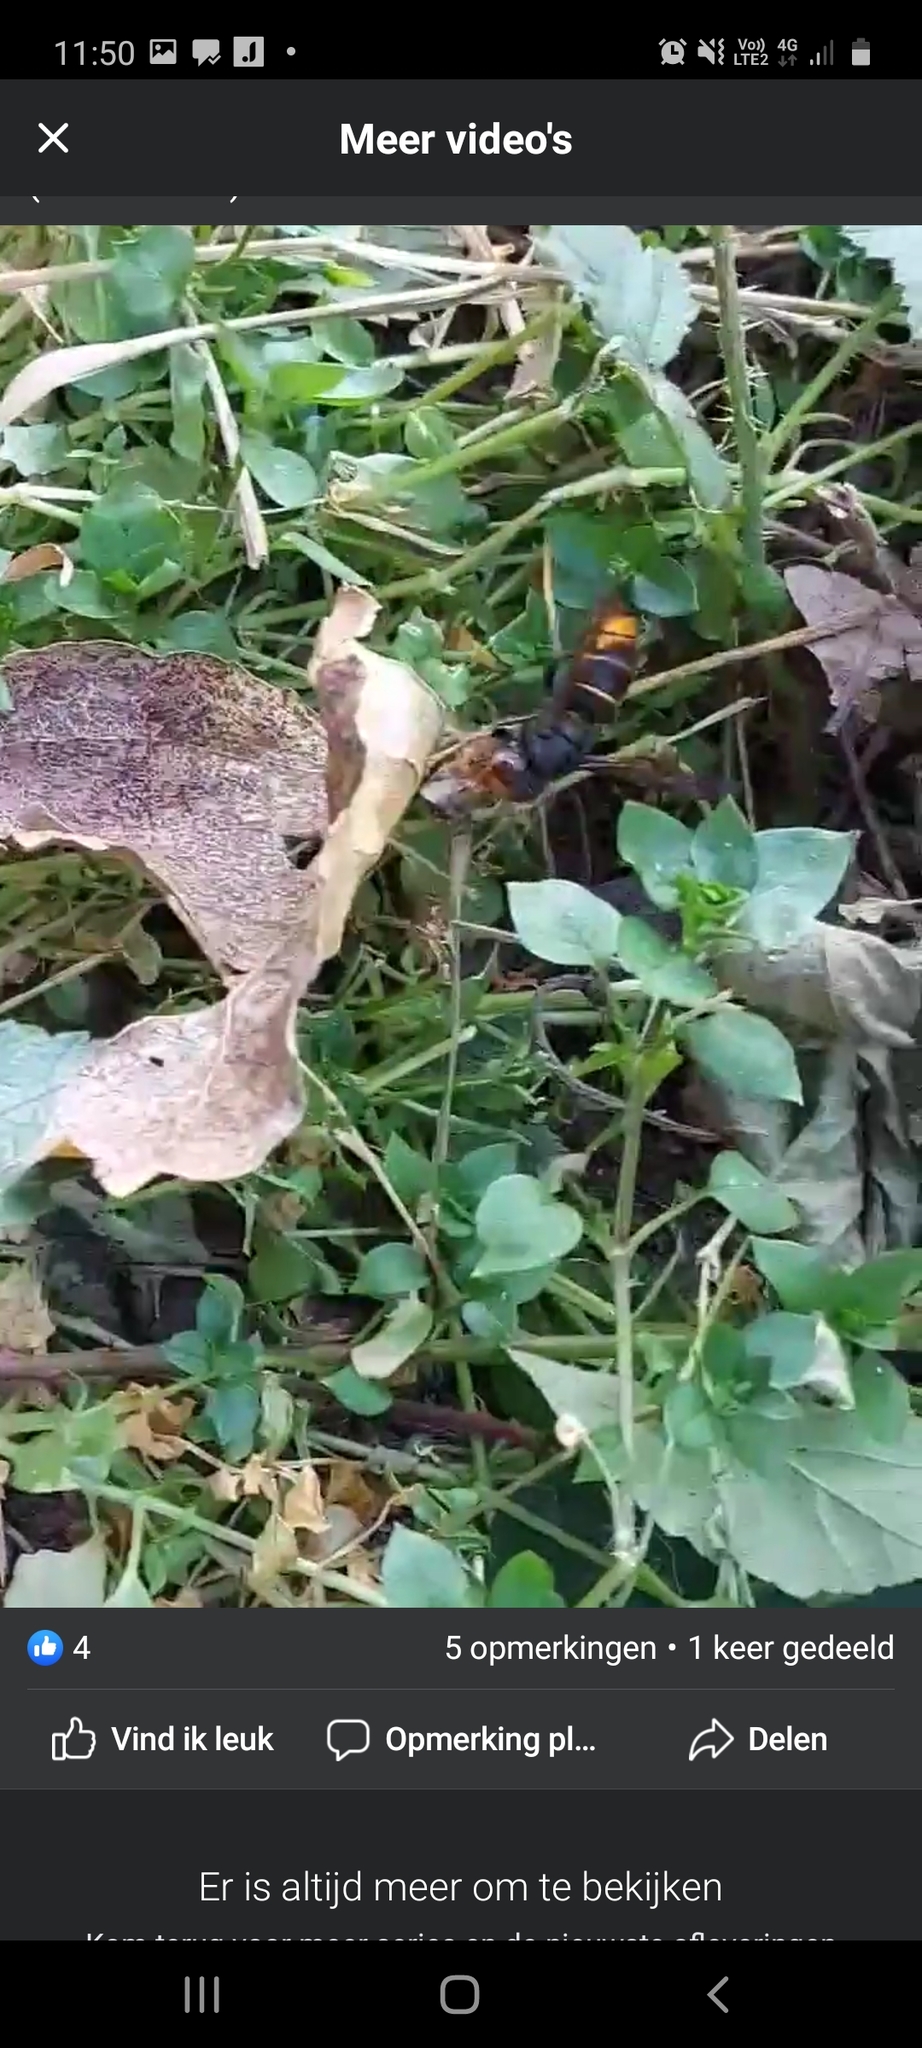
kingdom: Animalia
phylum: Arthropoda
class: Insecta
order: Hymenoptera
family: Vespidae
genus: Vespa
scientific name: Vespa velutina
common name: Asian hornet
